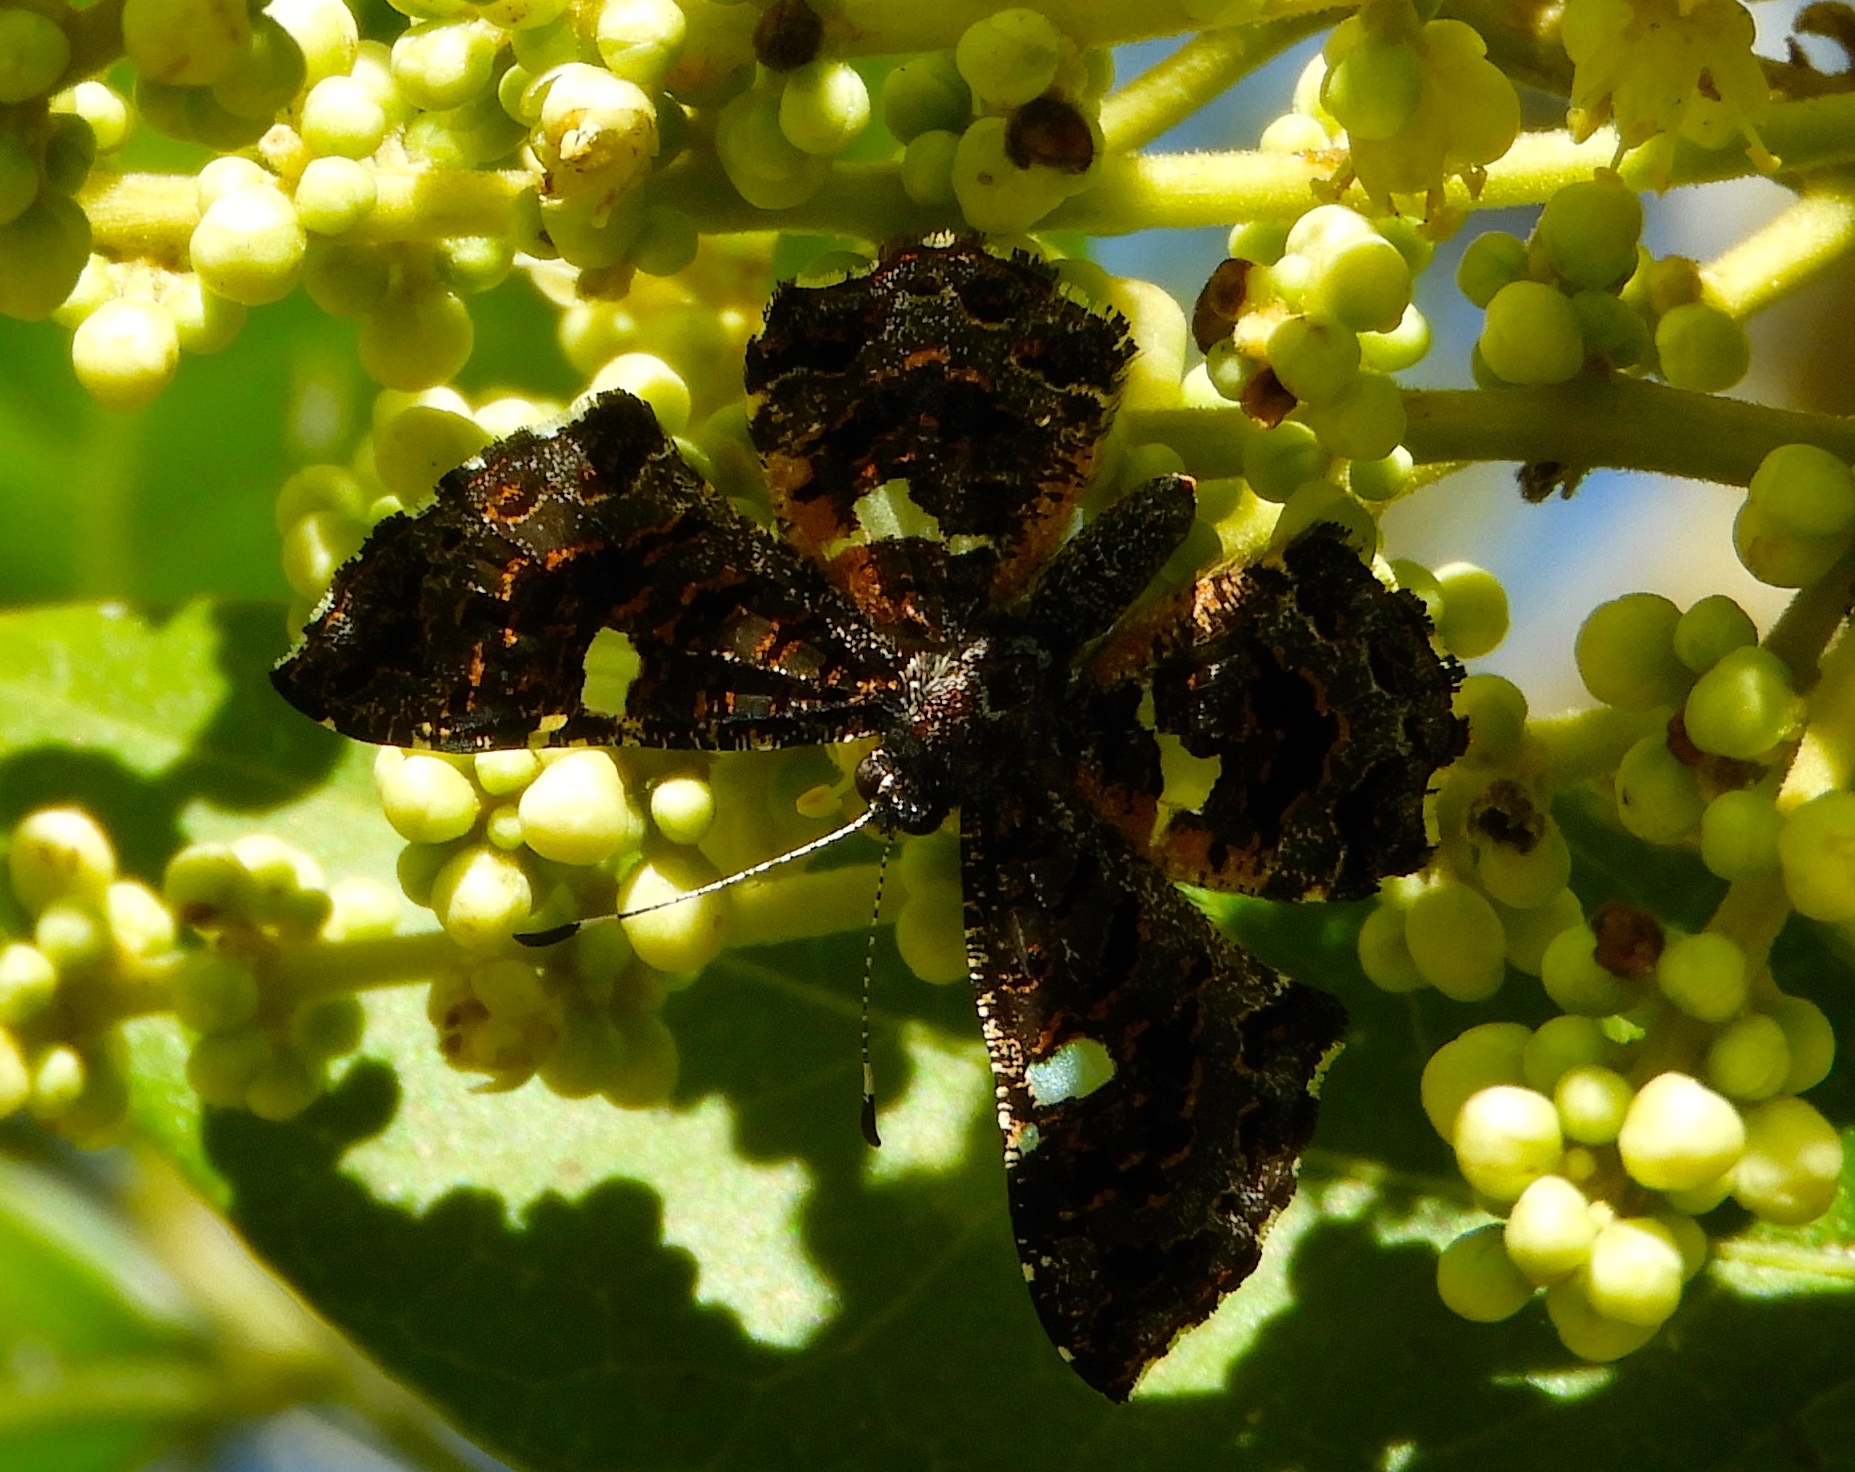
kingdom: Animalia
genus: Calydna
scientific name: Calydna sturnula
